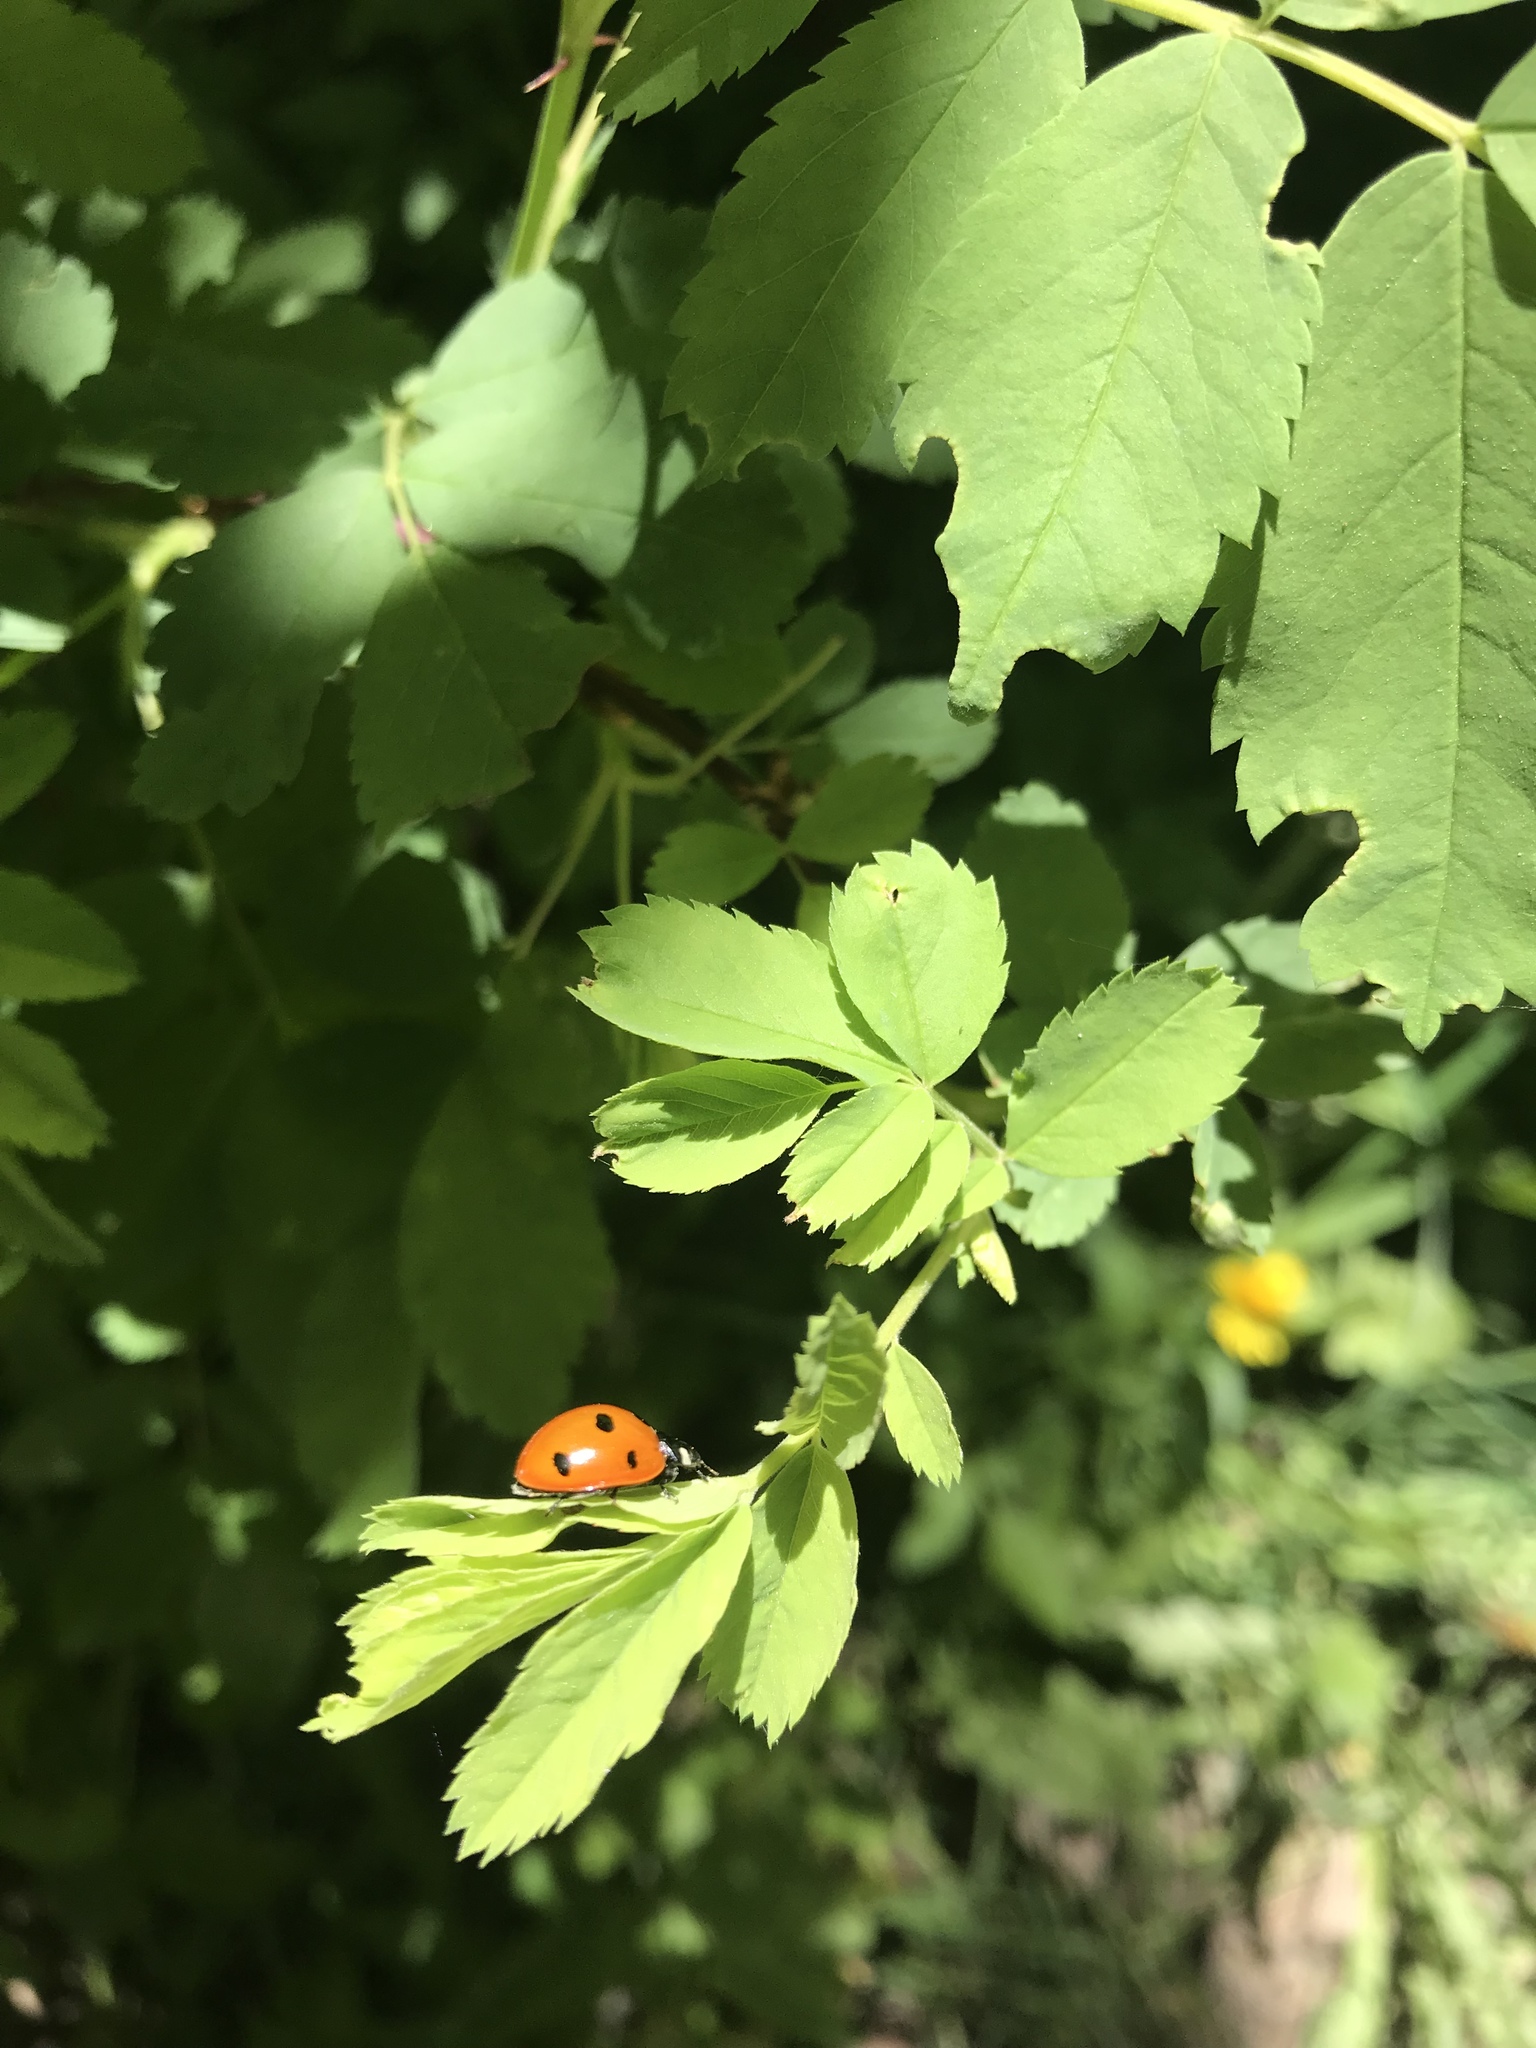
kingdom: Animalia
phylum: Arthropoda
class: Insecta
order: Coleoptera
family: Coccinellidae
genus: Coccinella
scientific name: Coccinella septempunctata
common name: Sevenspotted lady beetle
